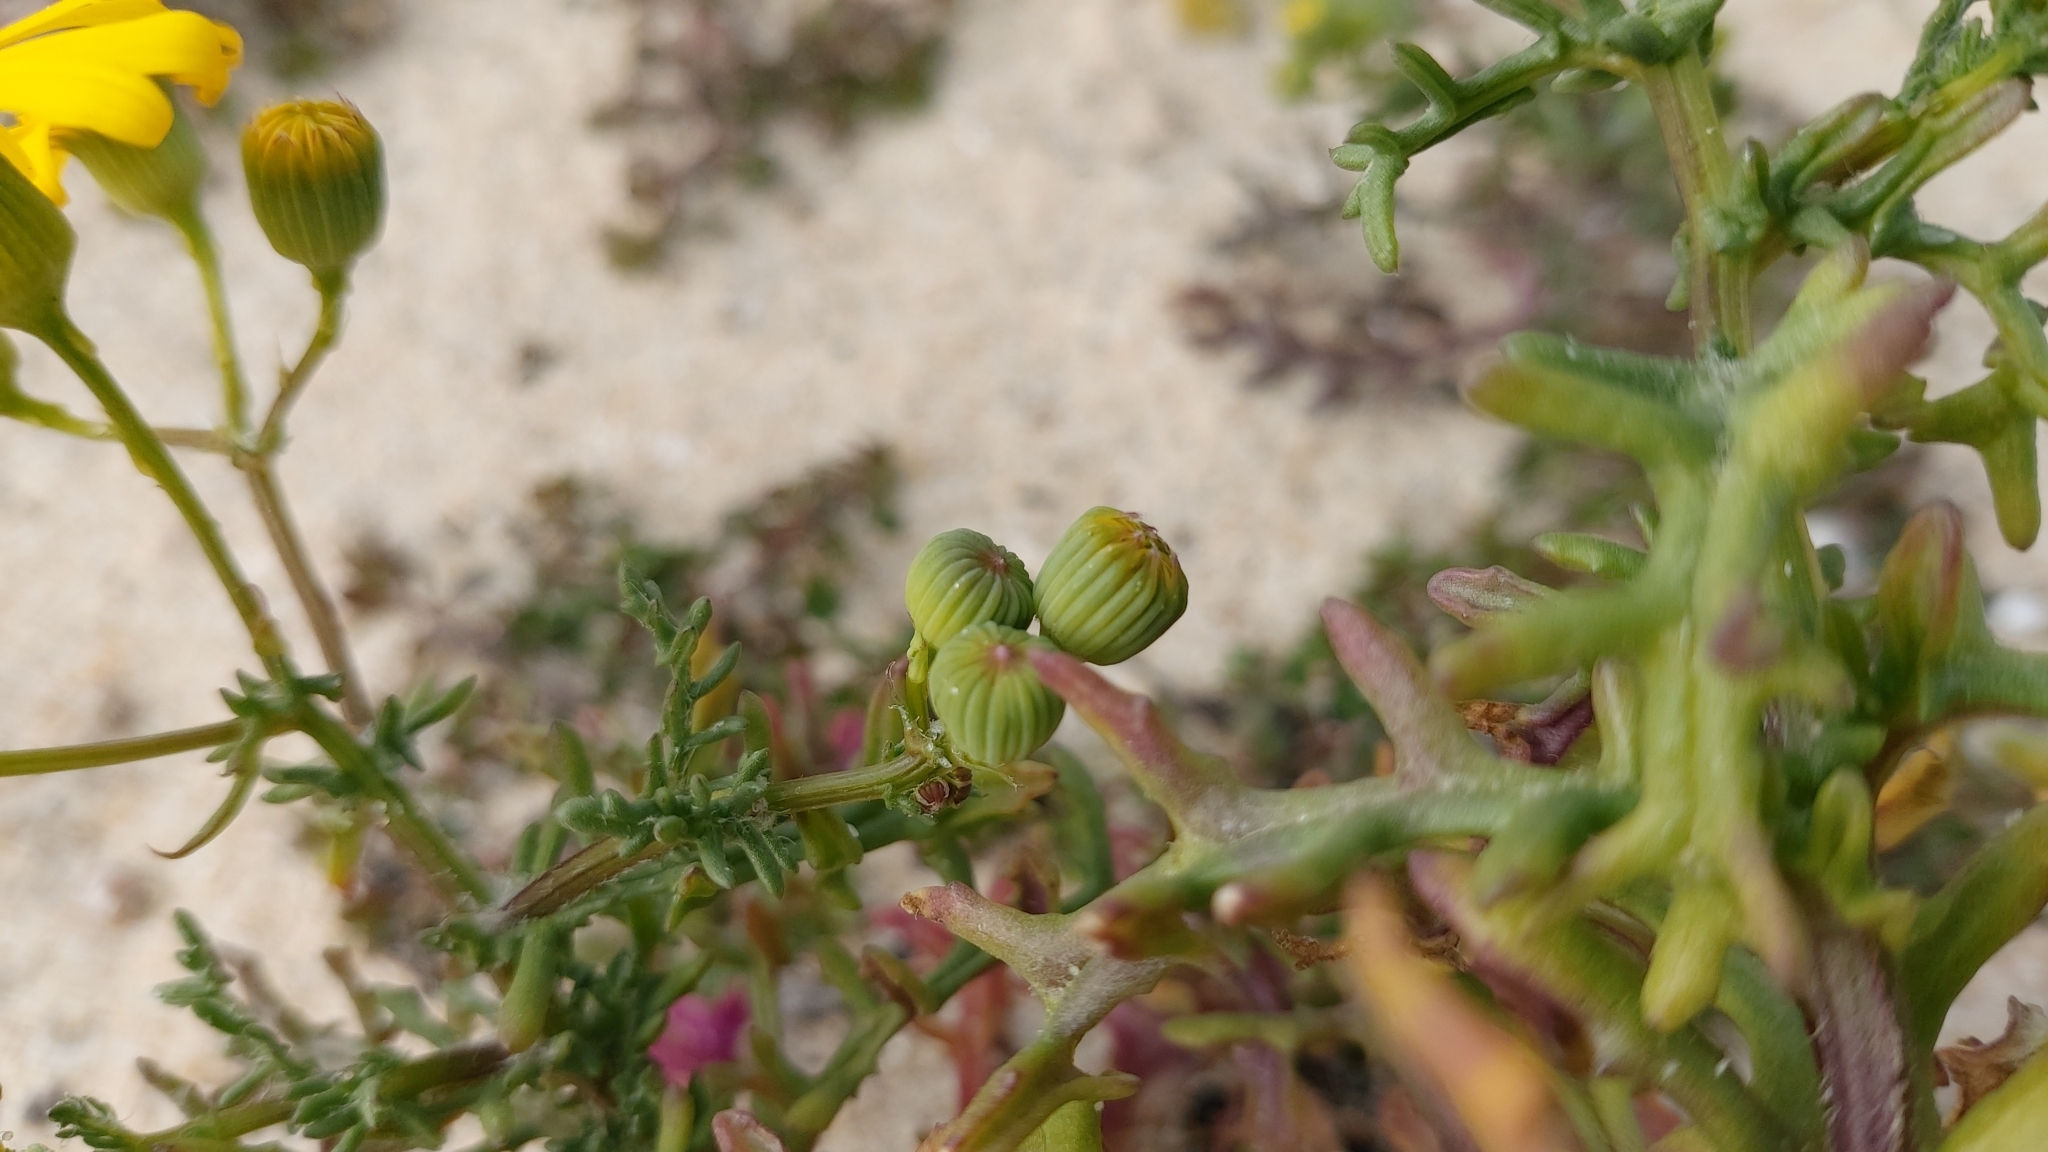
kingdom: Plantae
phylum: Tracheophyta
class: Magnoliopsida
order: Asterales
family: Asteraceae
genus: Senecio
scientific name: Senecio gallicus
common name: French groundsel
